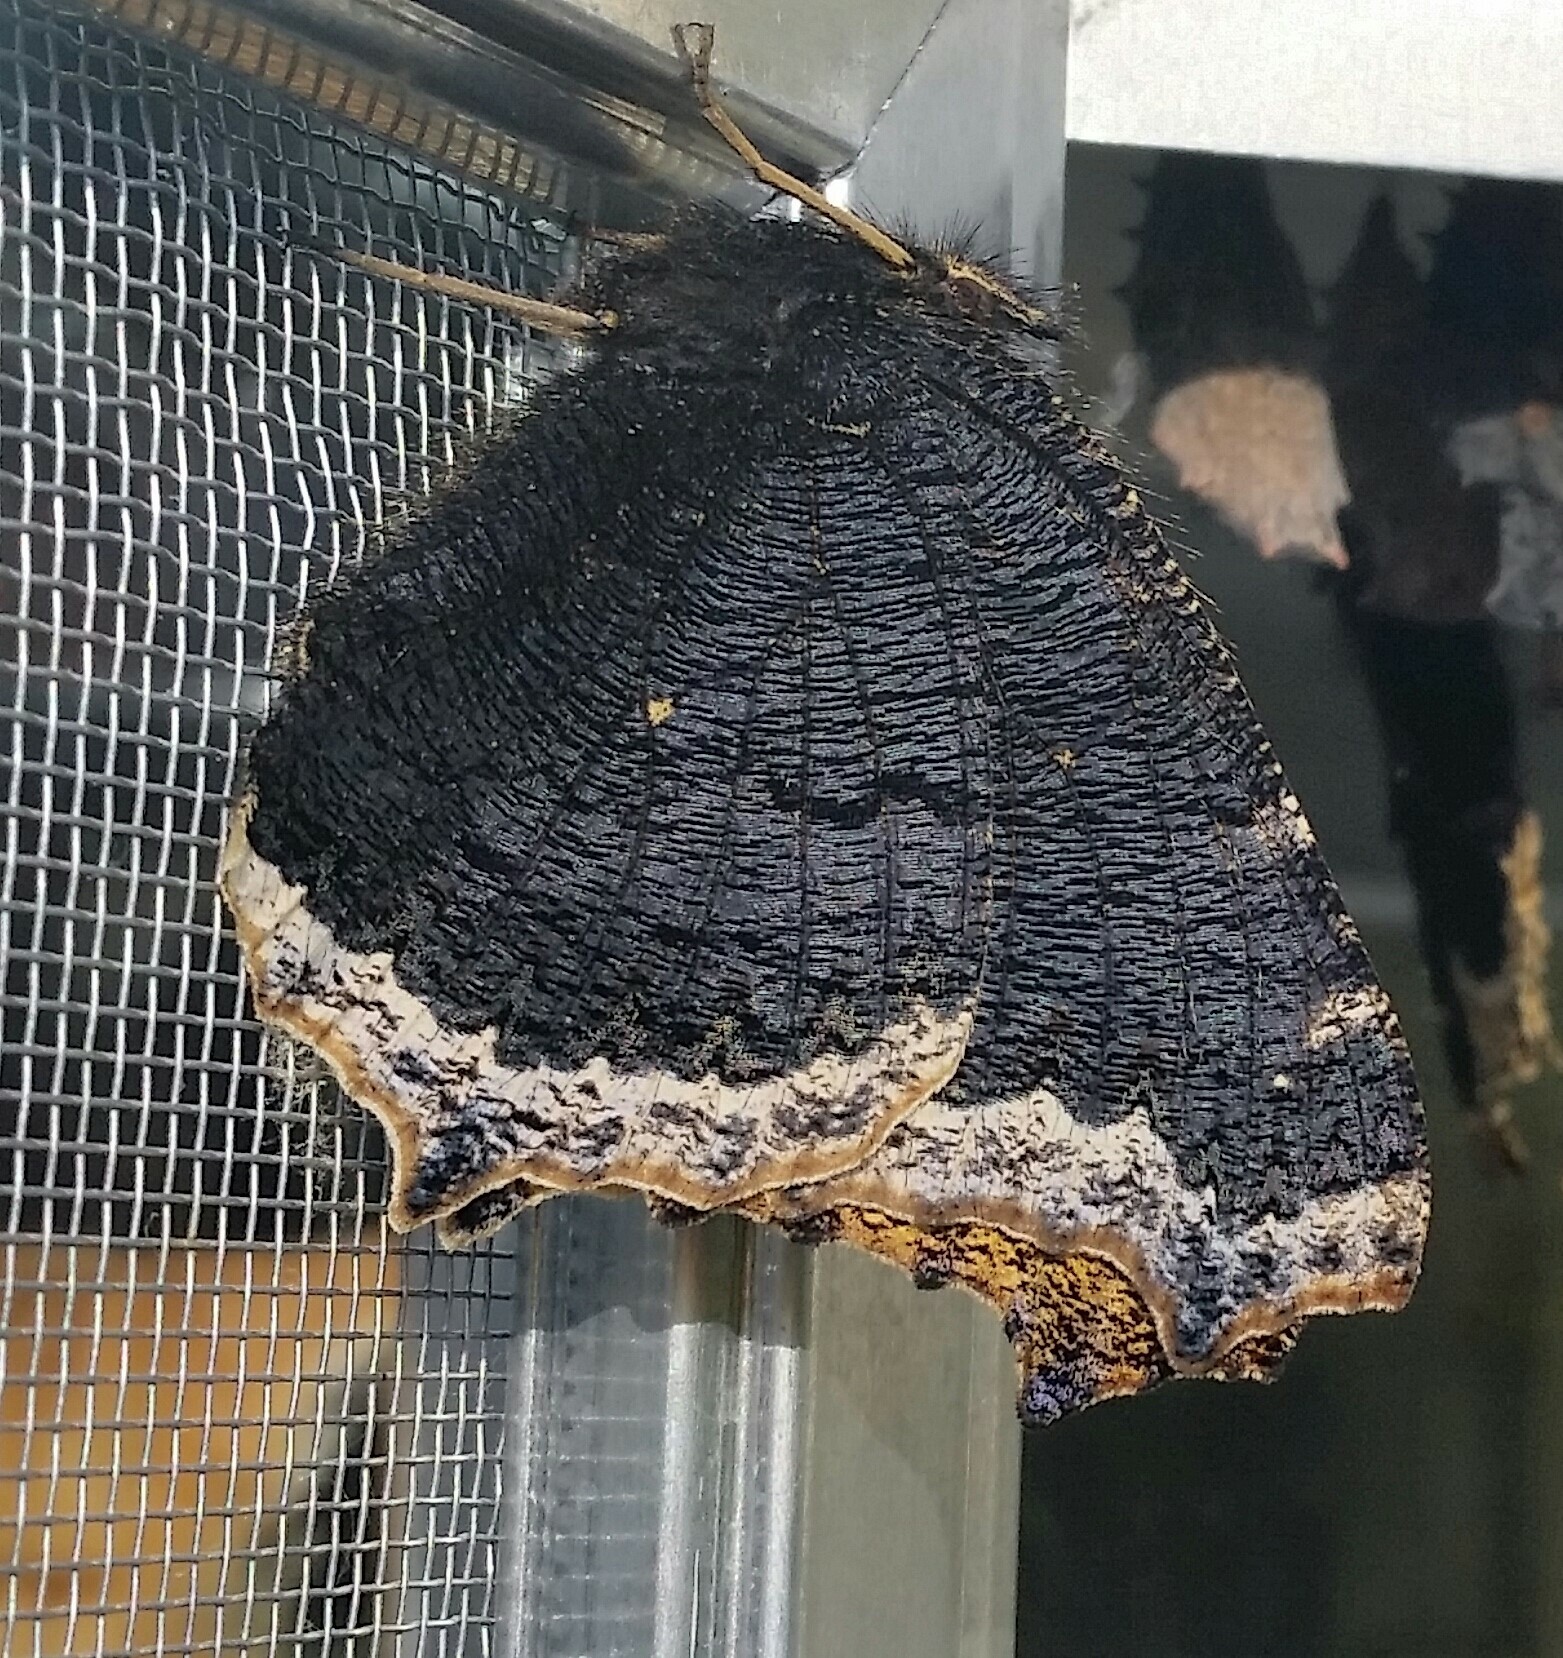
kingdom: Animalia
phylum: Arthropoda
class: Insecta
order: Lepidoptera
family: Nymphalidae
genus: Nymphalis
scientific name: Nymphalis antiopa
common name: Camberwell beauty
